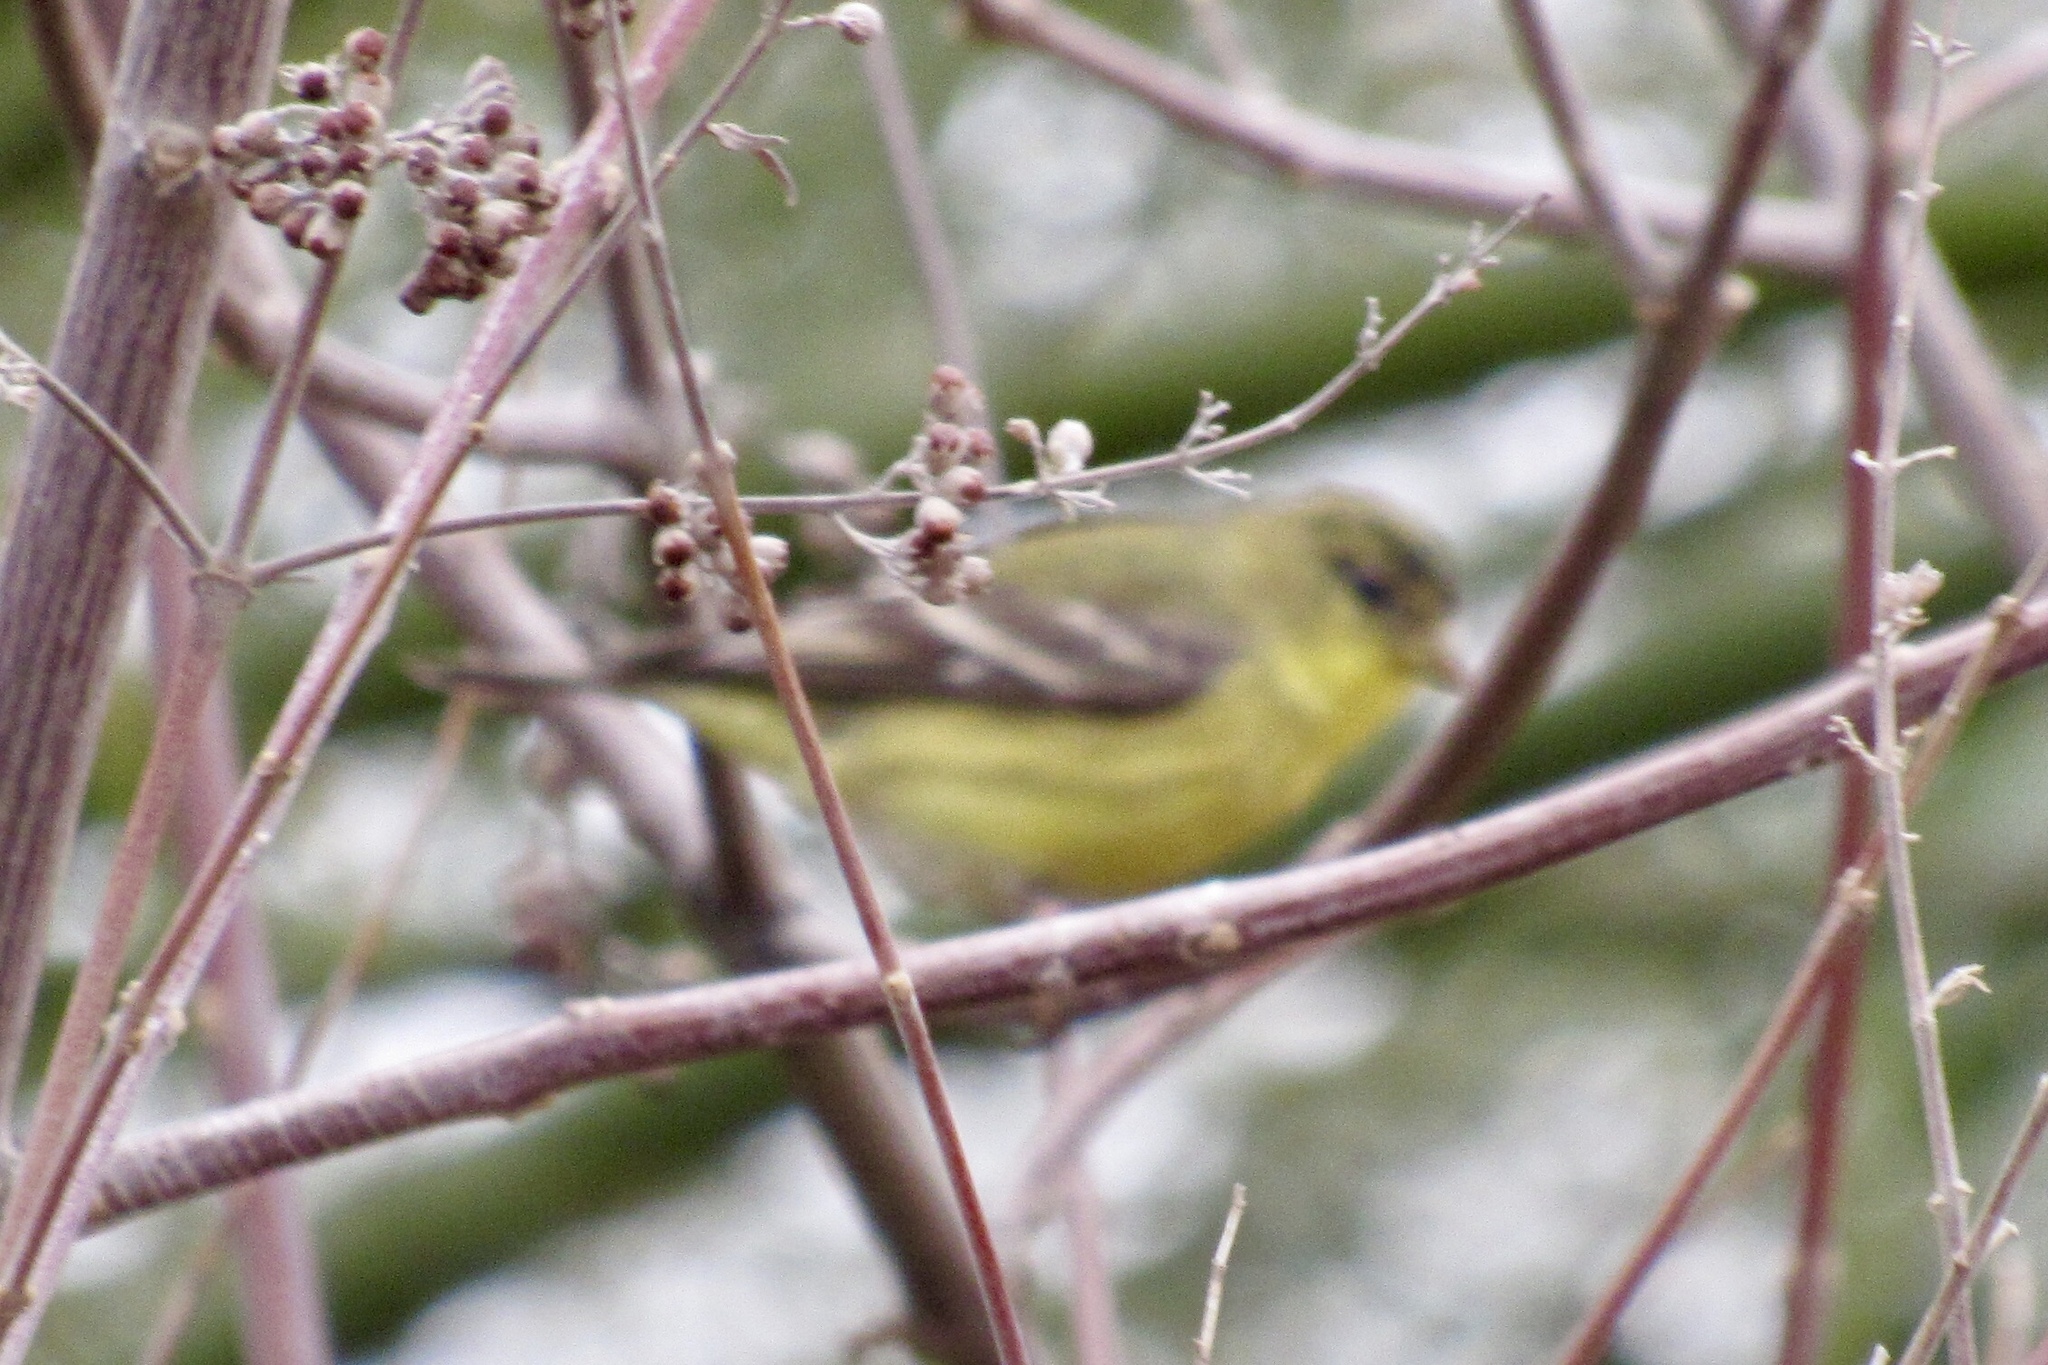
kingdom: Animalia
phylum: Chordata
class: Aves
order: Passeriformes
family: Fringillidae
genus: Spinus
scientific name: Spinus psaltria
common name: Lesser goldfinch
